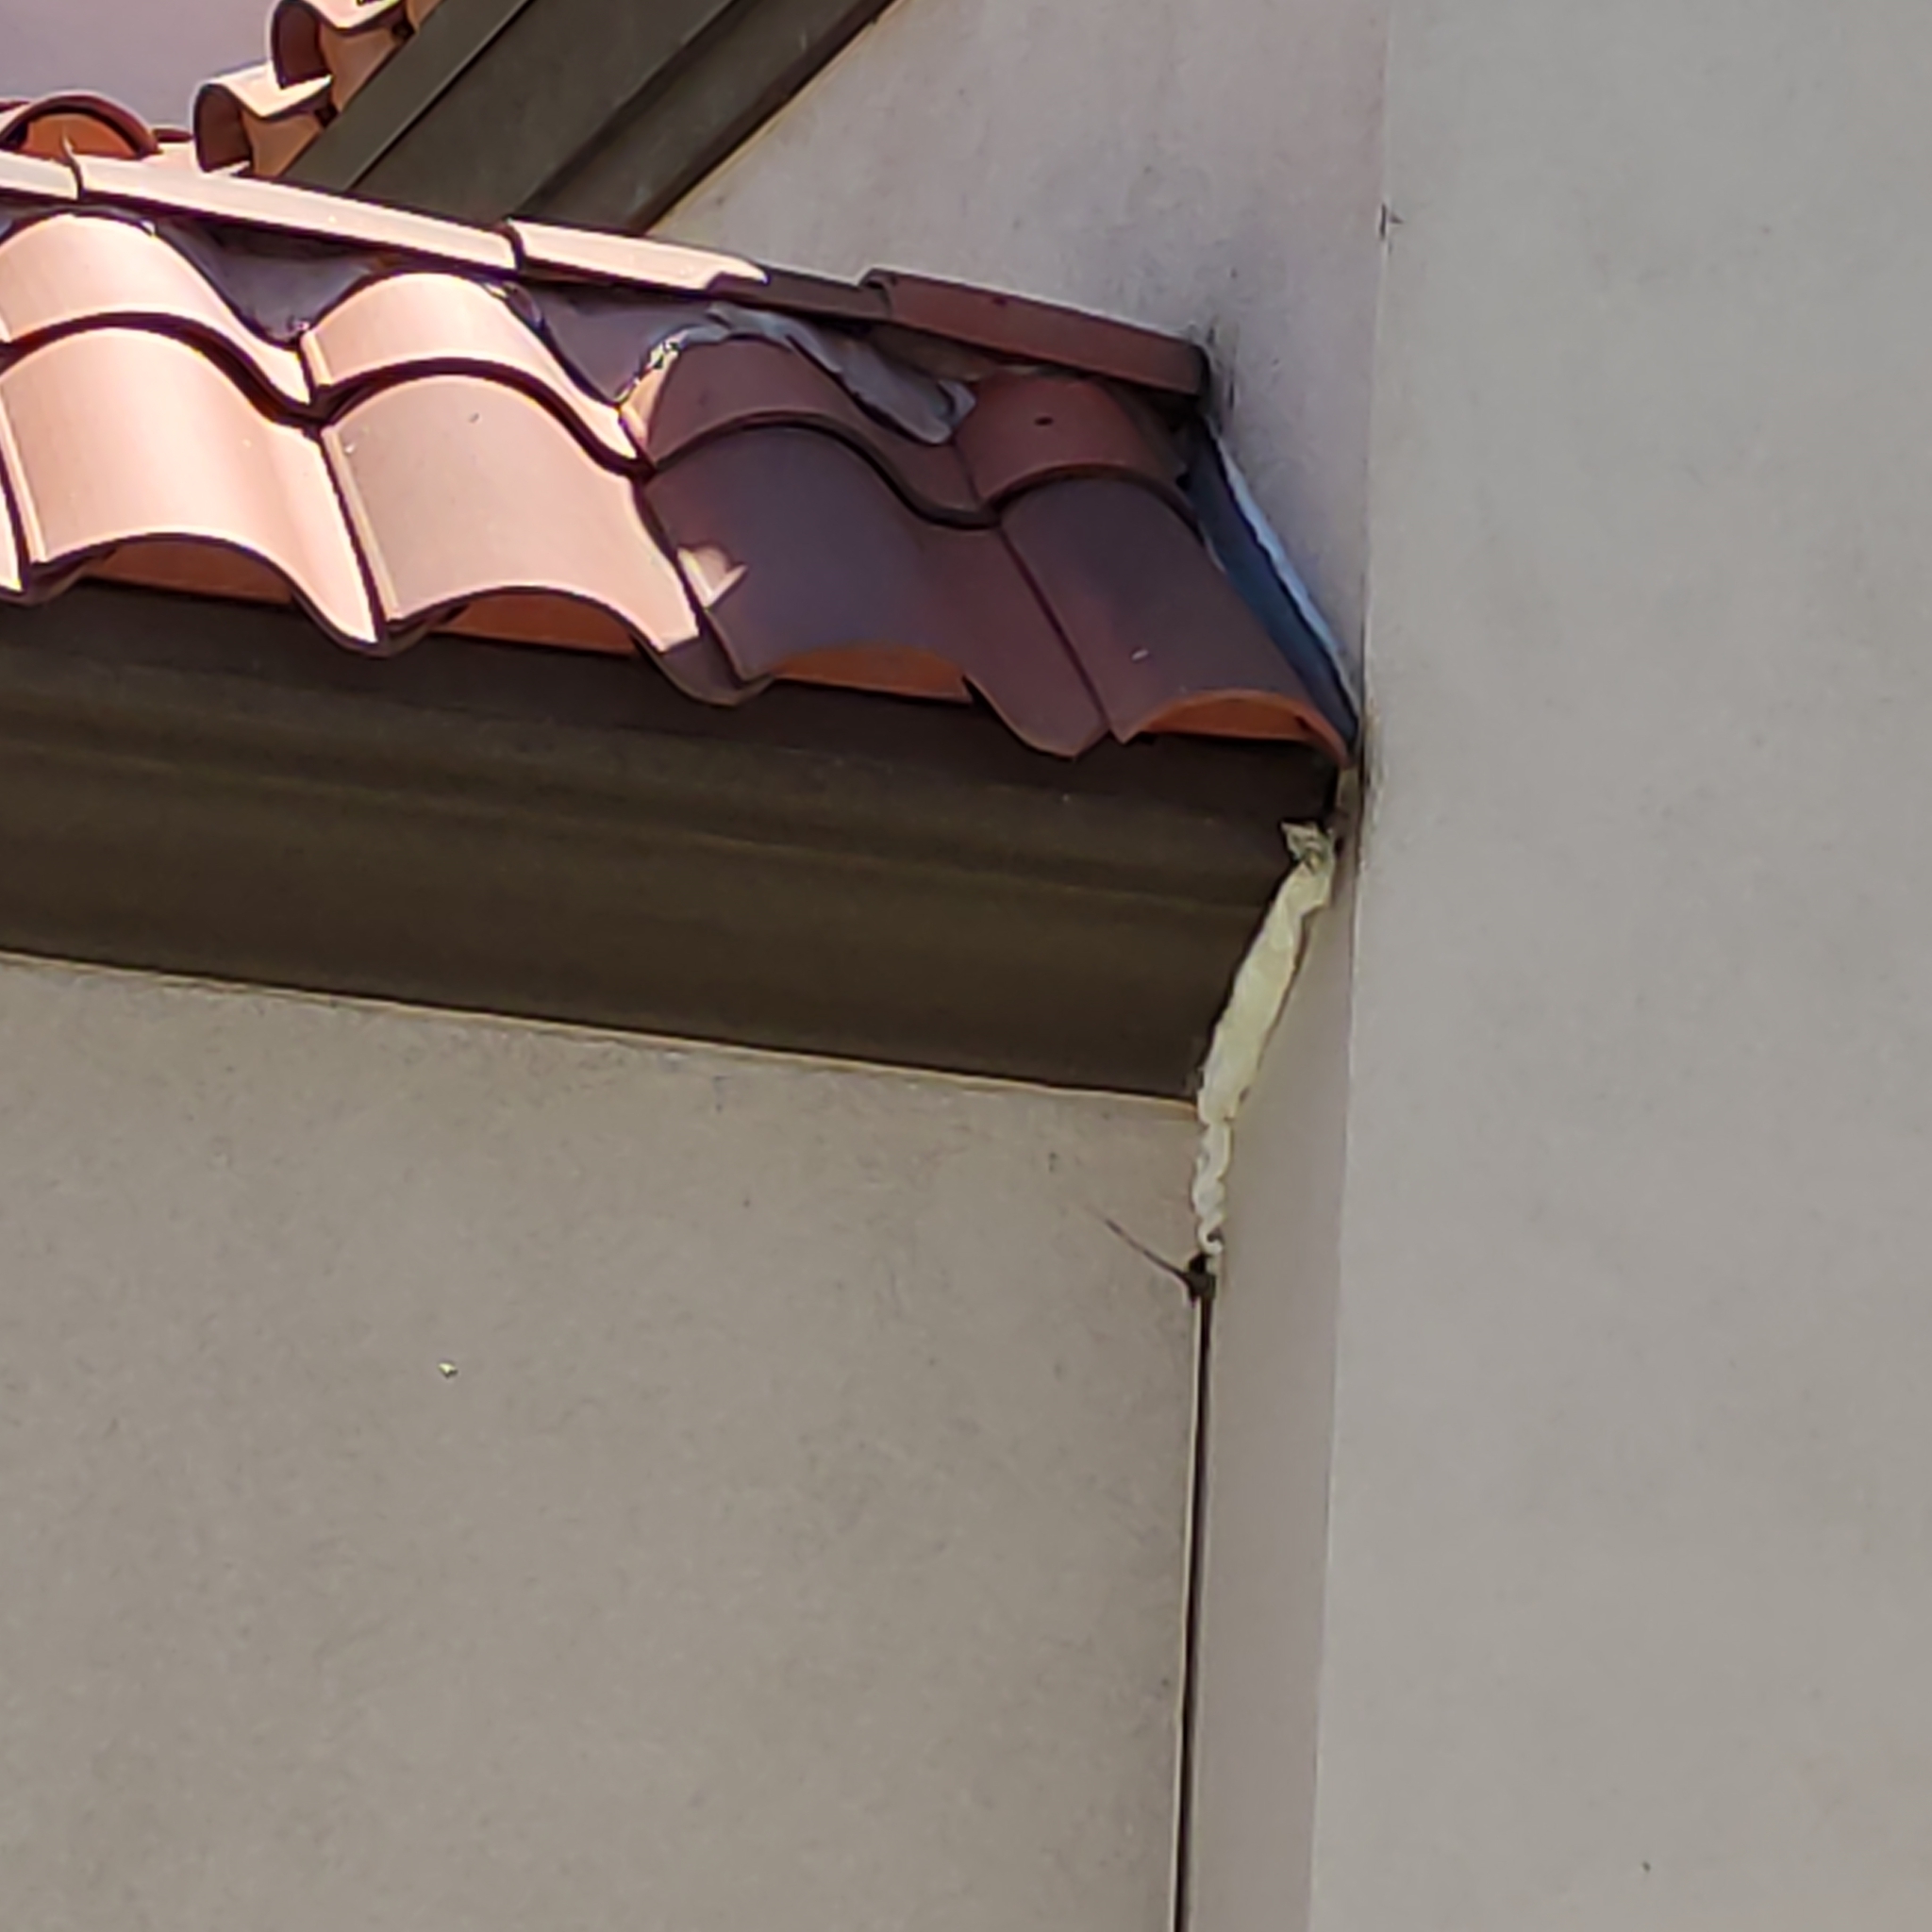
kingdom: Animalia
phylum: Arthropoda
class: Insecta
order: Hymenoptera
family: Apidae
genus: Apis
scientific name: Apis mellifera
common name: Honey bee
